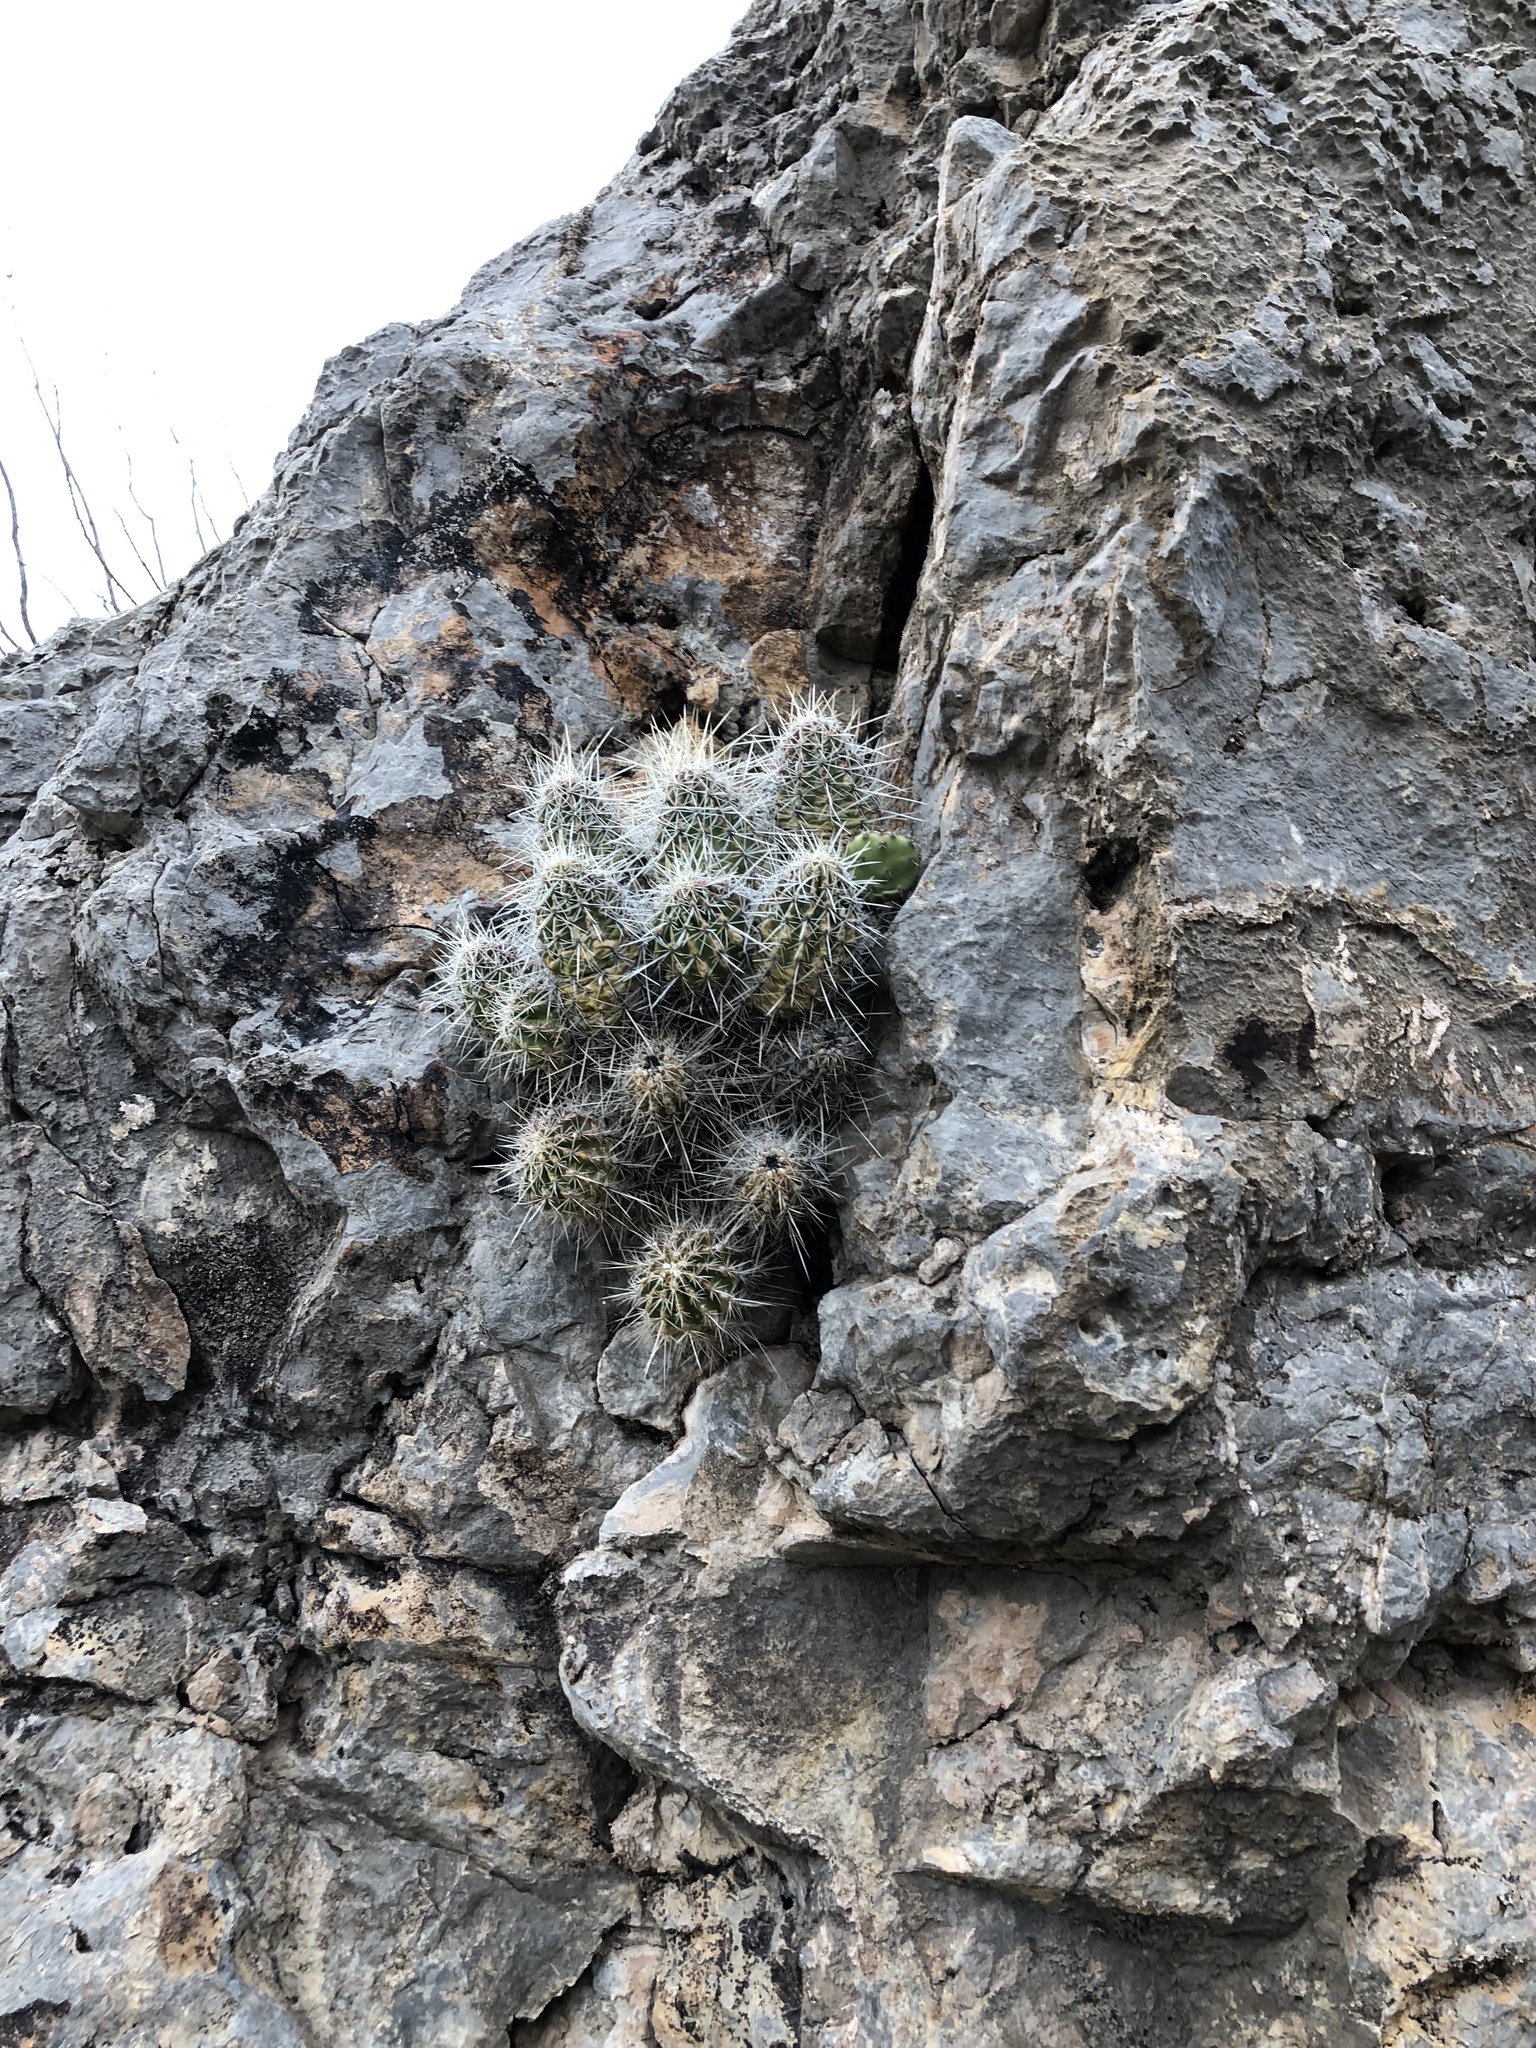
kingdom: Plantae
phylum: Tracheophyta
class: Magnoliopsida
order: Caryophyllales
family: Cactaceae
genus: Echinocereus
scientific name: Echinocereus stramineus
